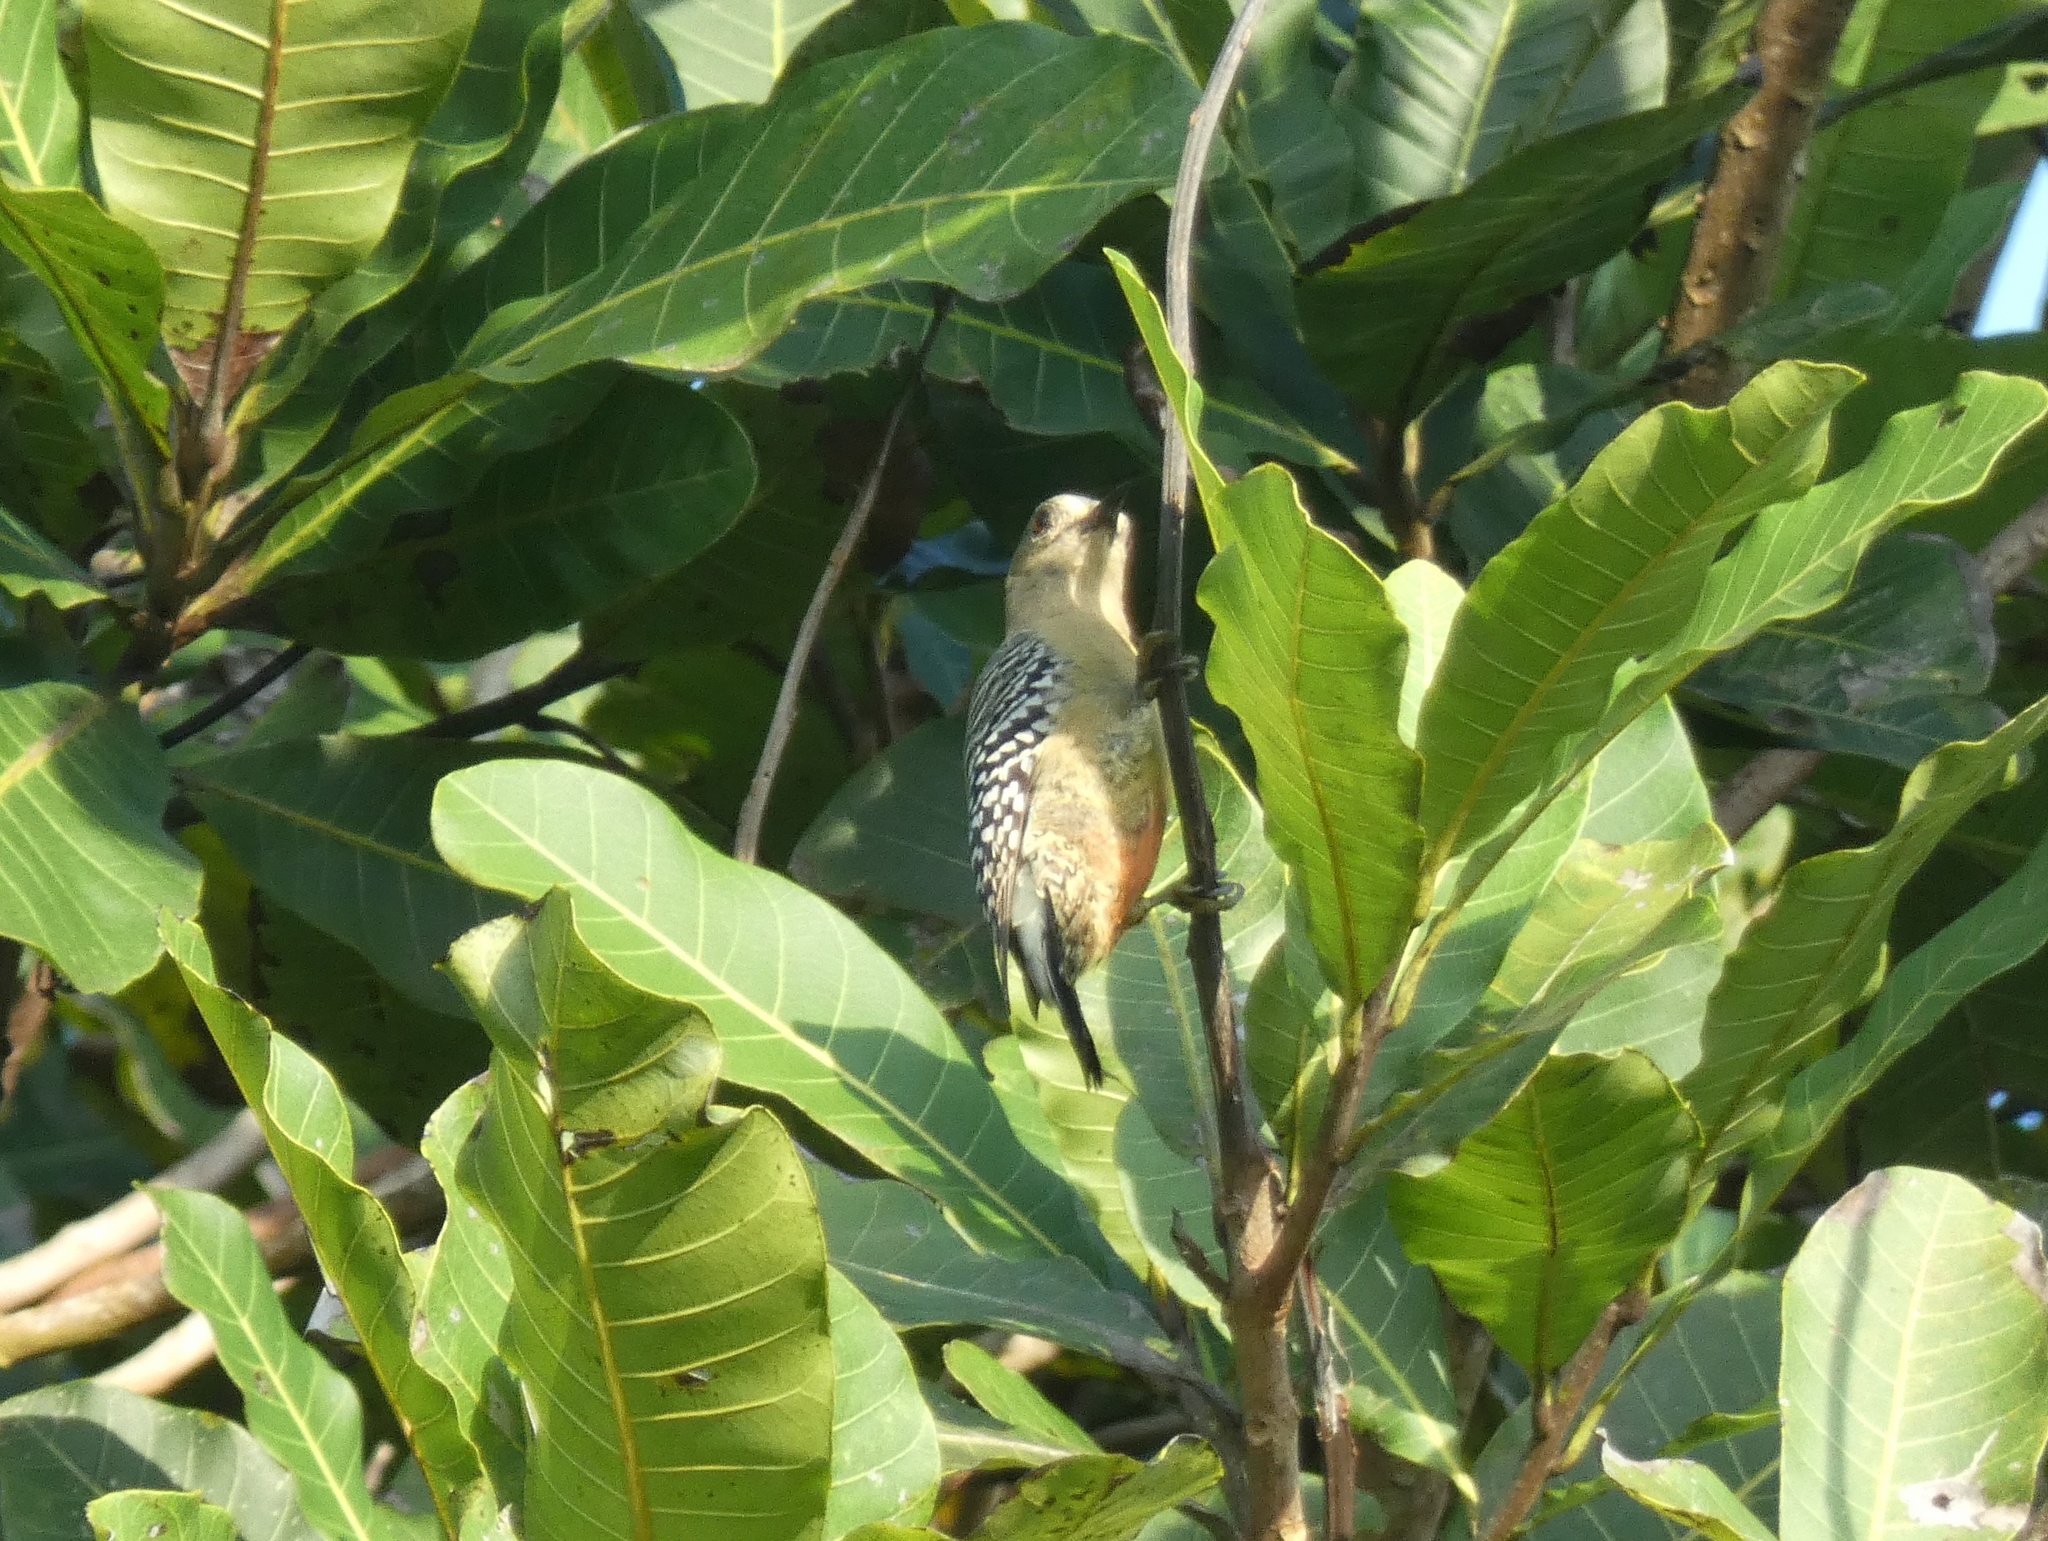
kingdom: Animalia
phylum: Chordata
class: Aves
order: Piciformes
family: Picidae
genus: Melanerpes
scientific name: Melanerpes rubricapillus
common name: Red-crowned woodpecker
